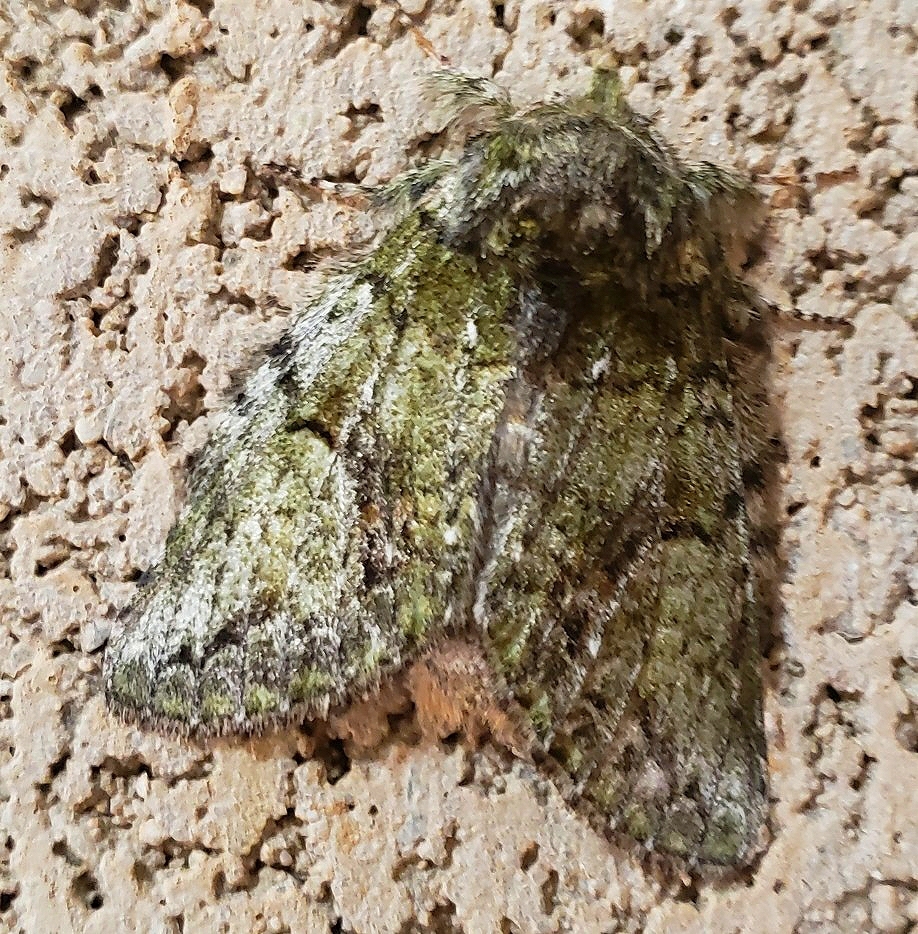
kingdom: Animalia
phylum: Arthropoda
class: Insecta
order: Lepidoptera
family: Notodontidae
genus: Heterocampa
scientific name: Heterocampa
